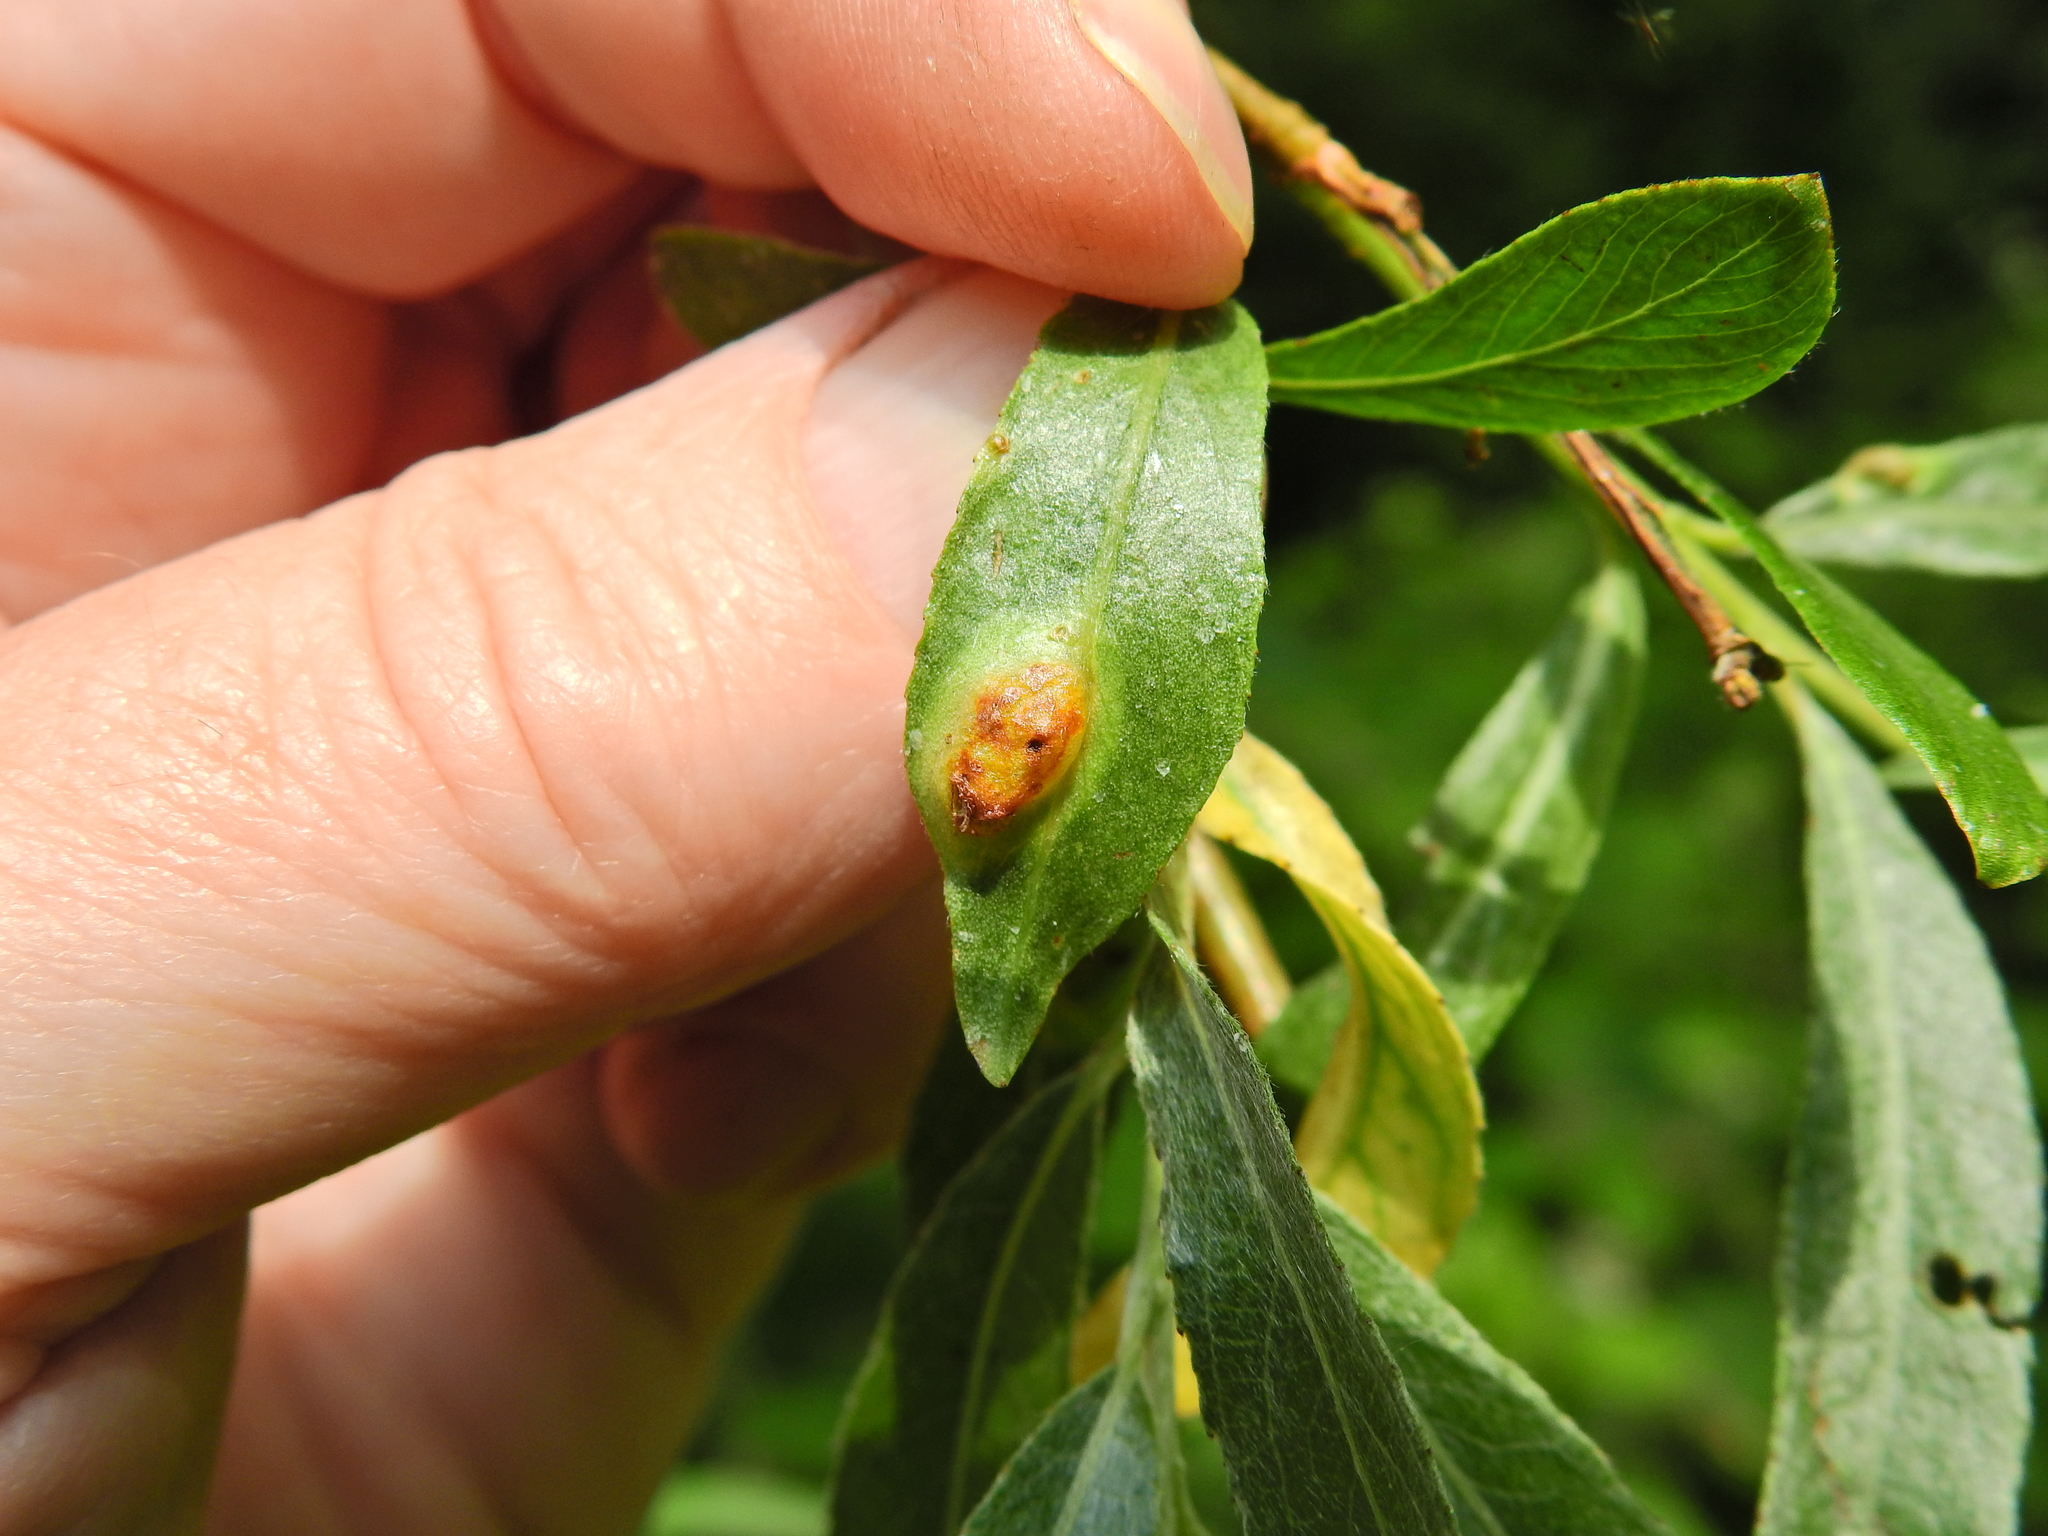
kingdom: Animalia
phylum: Arthropoda
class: Insecta
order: Hymenoptera
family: Tenthredinidae
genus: Pontania
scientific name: Pontania proxima
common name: Common sawfly
